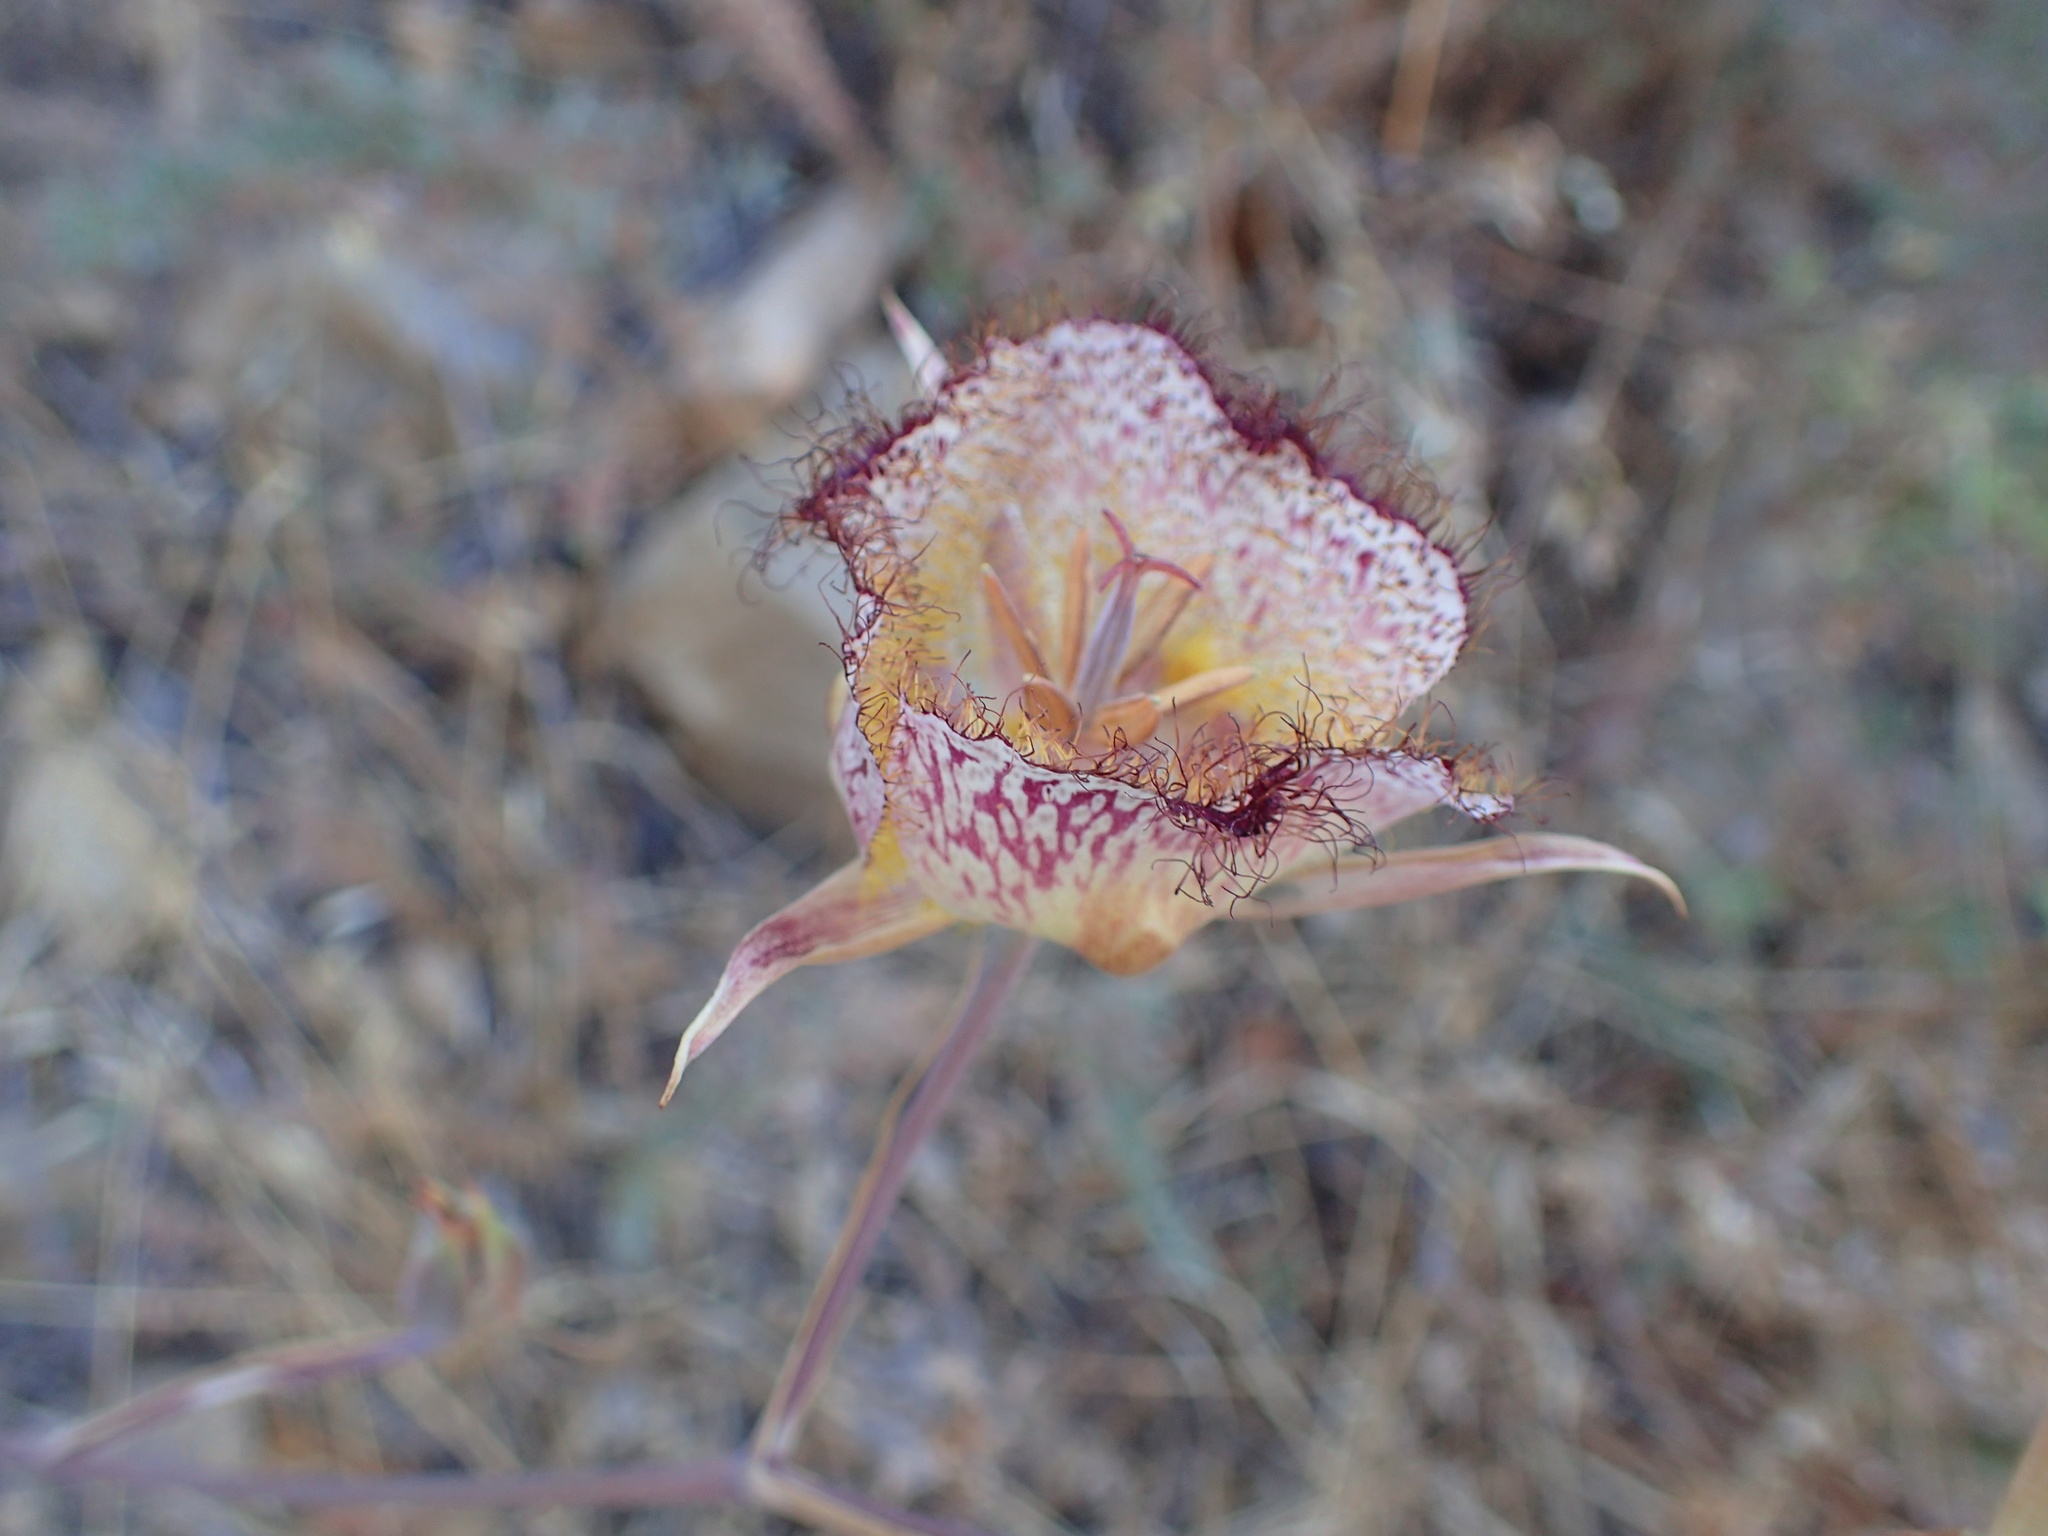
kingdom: Plantae
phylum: Tracheophyta
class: Liliopsida
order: Liliales
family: Liliaceae
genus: Calochortus
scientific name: Calochortus fimbriatus
